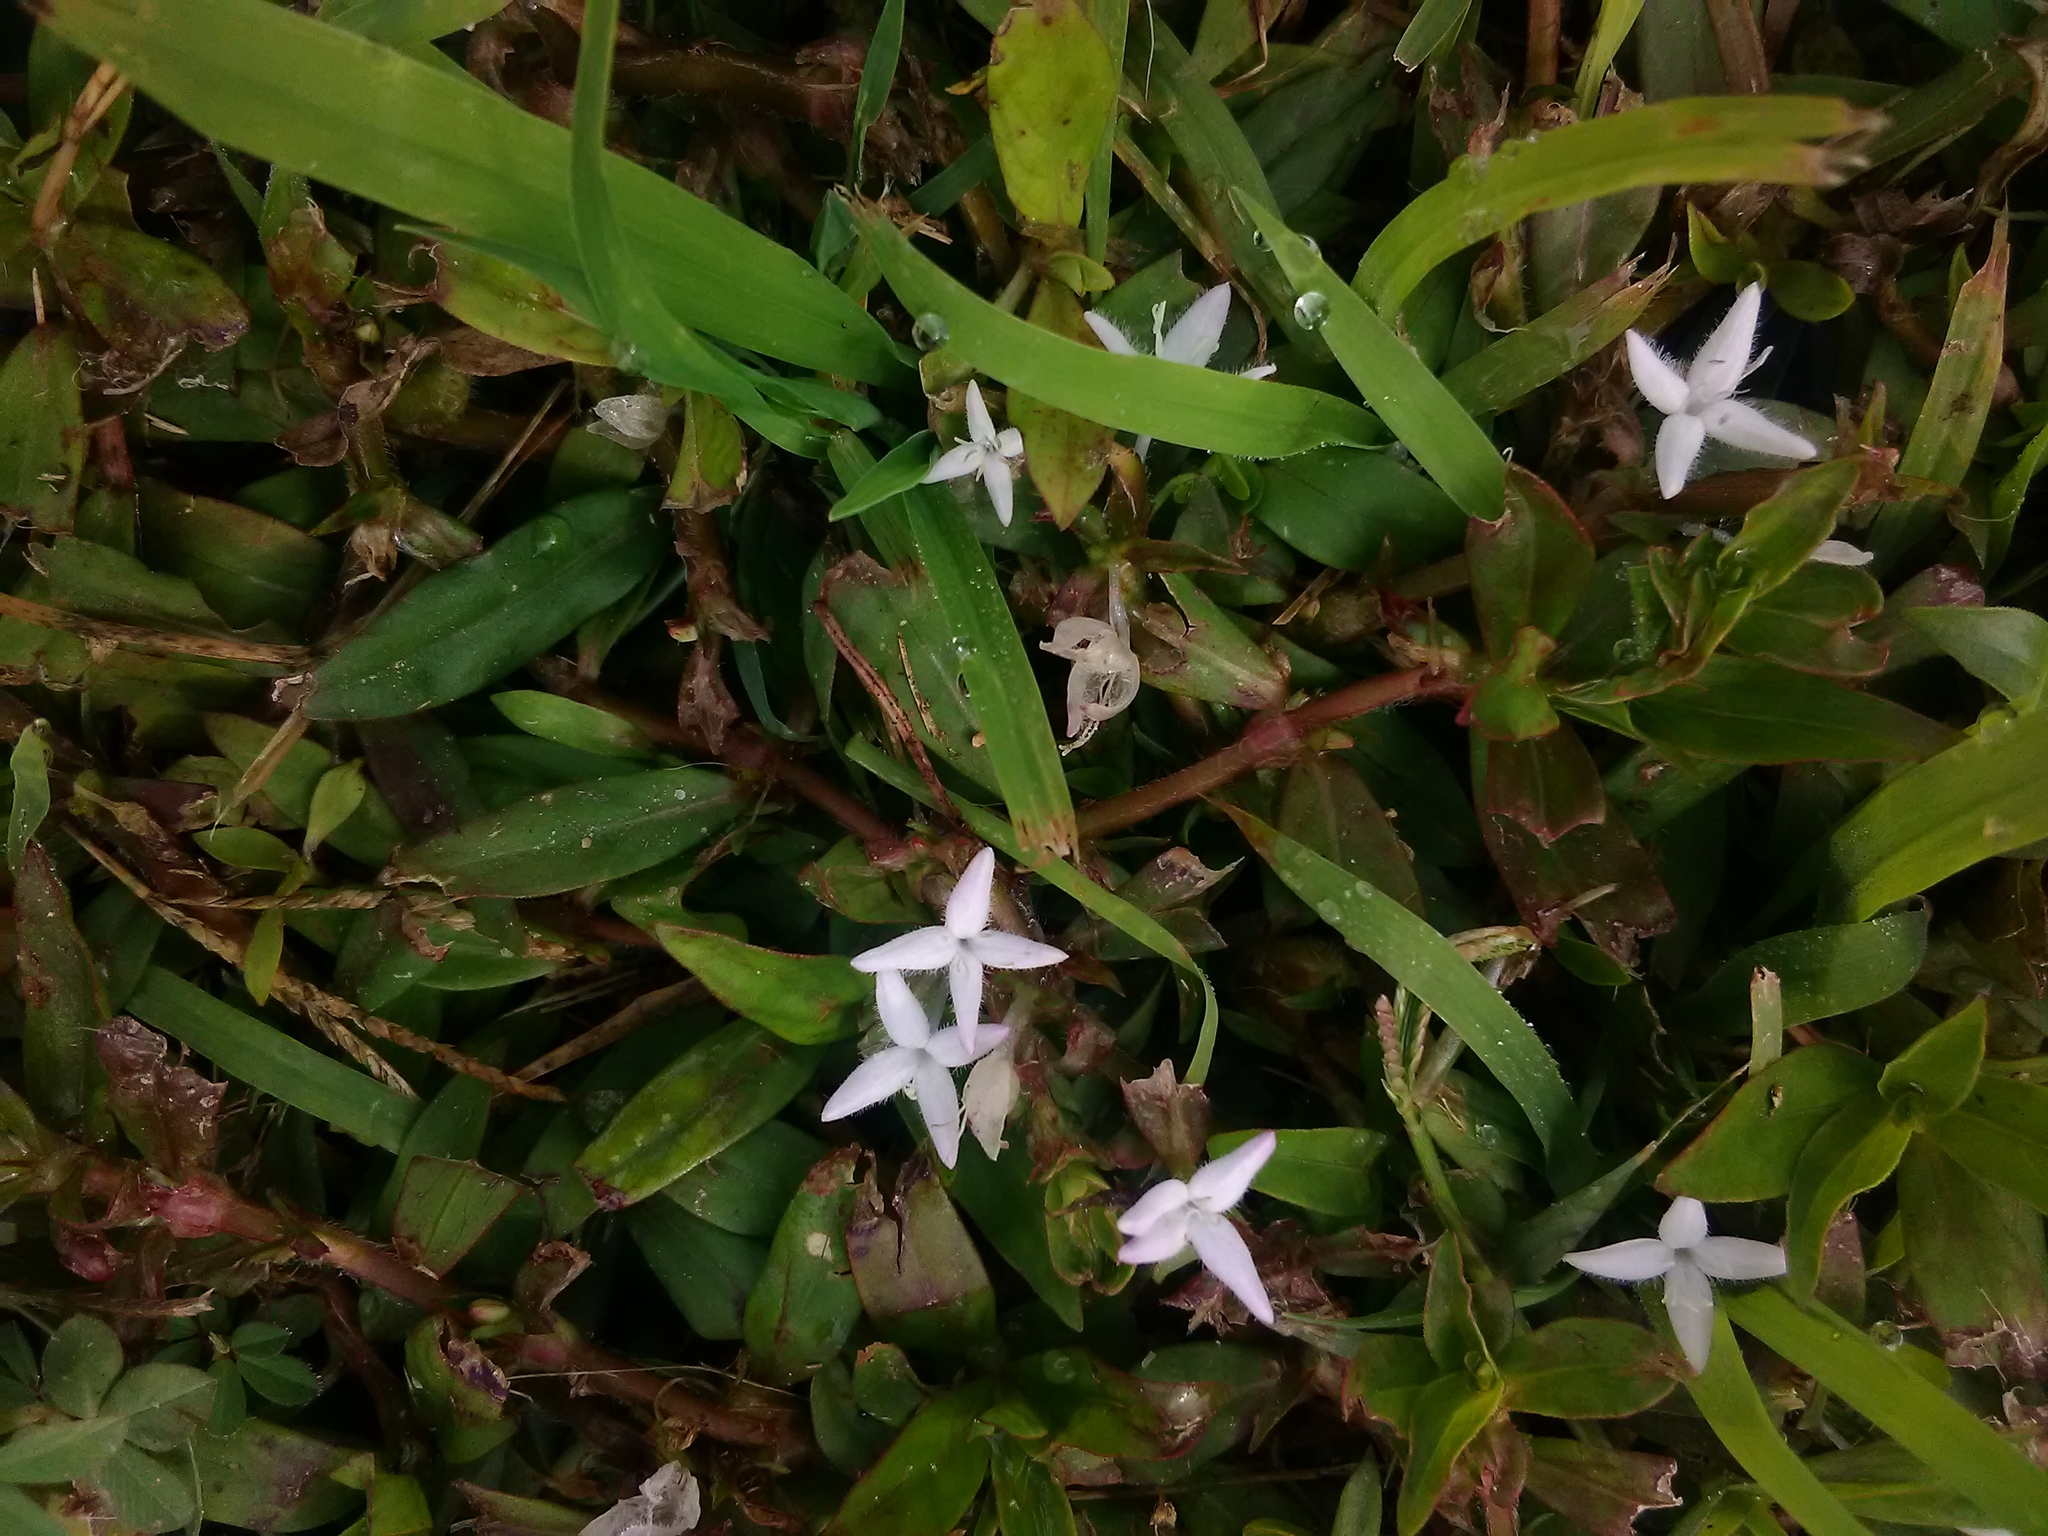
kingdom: Plantae
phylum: Tracheophyta
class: Magnoliopsida
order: Gentianales
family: Rubiaceae
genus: Diodia
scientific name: Diodia virginiana
